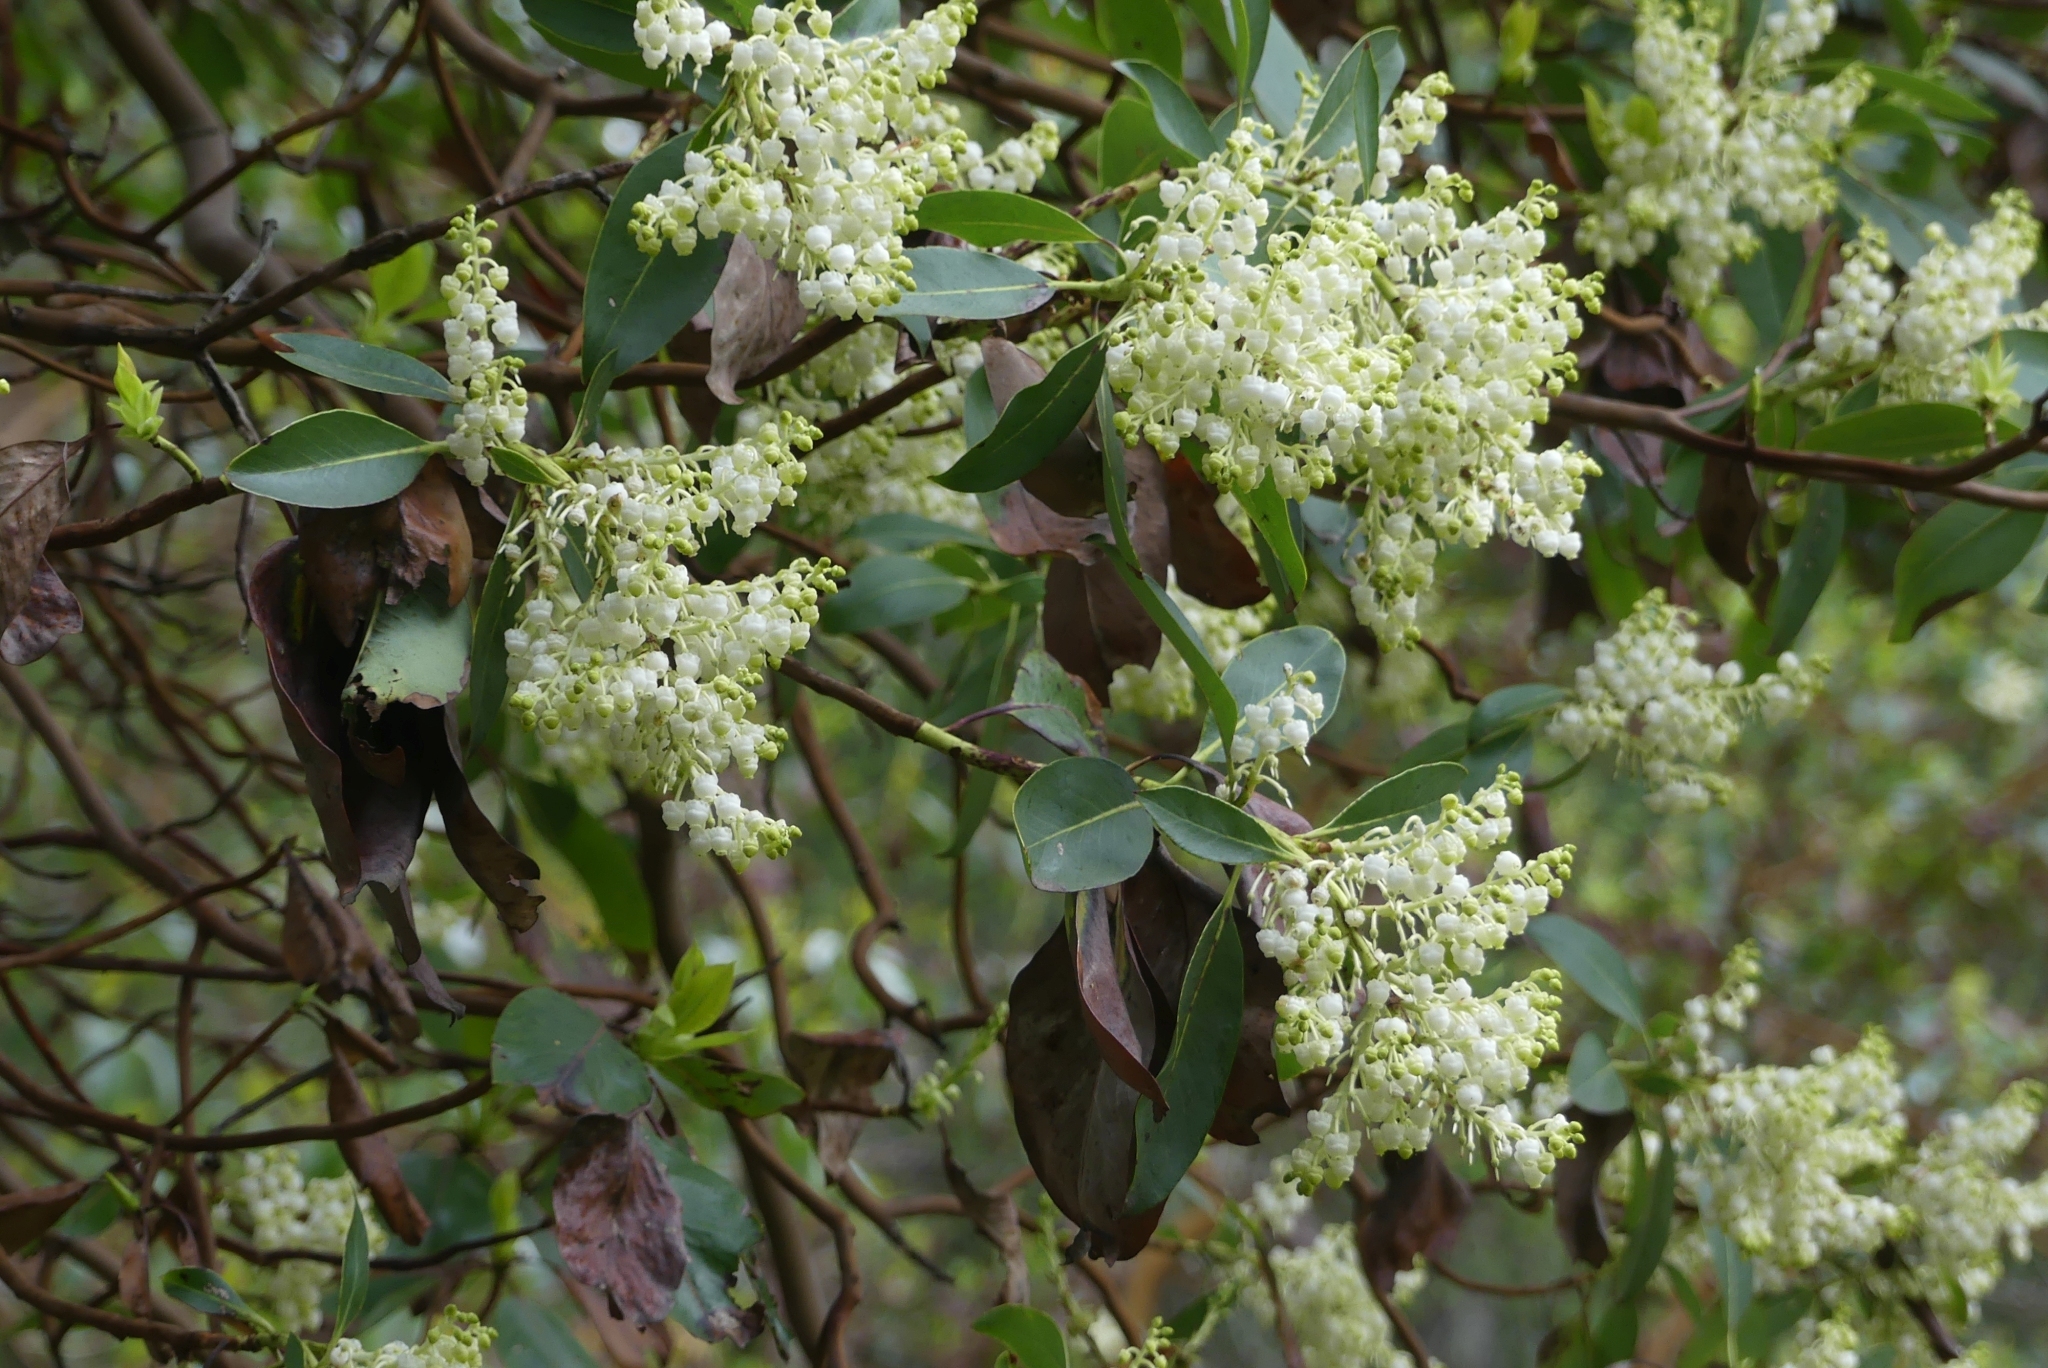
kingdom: Plantae
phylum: Tracheophyta
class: Magnoliopsida
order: Ericales
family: Ericaceae
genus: Arbutus
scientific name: Arbutus menziesii
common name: Pacific madrone
